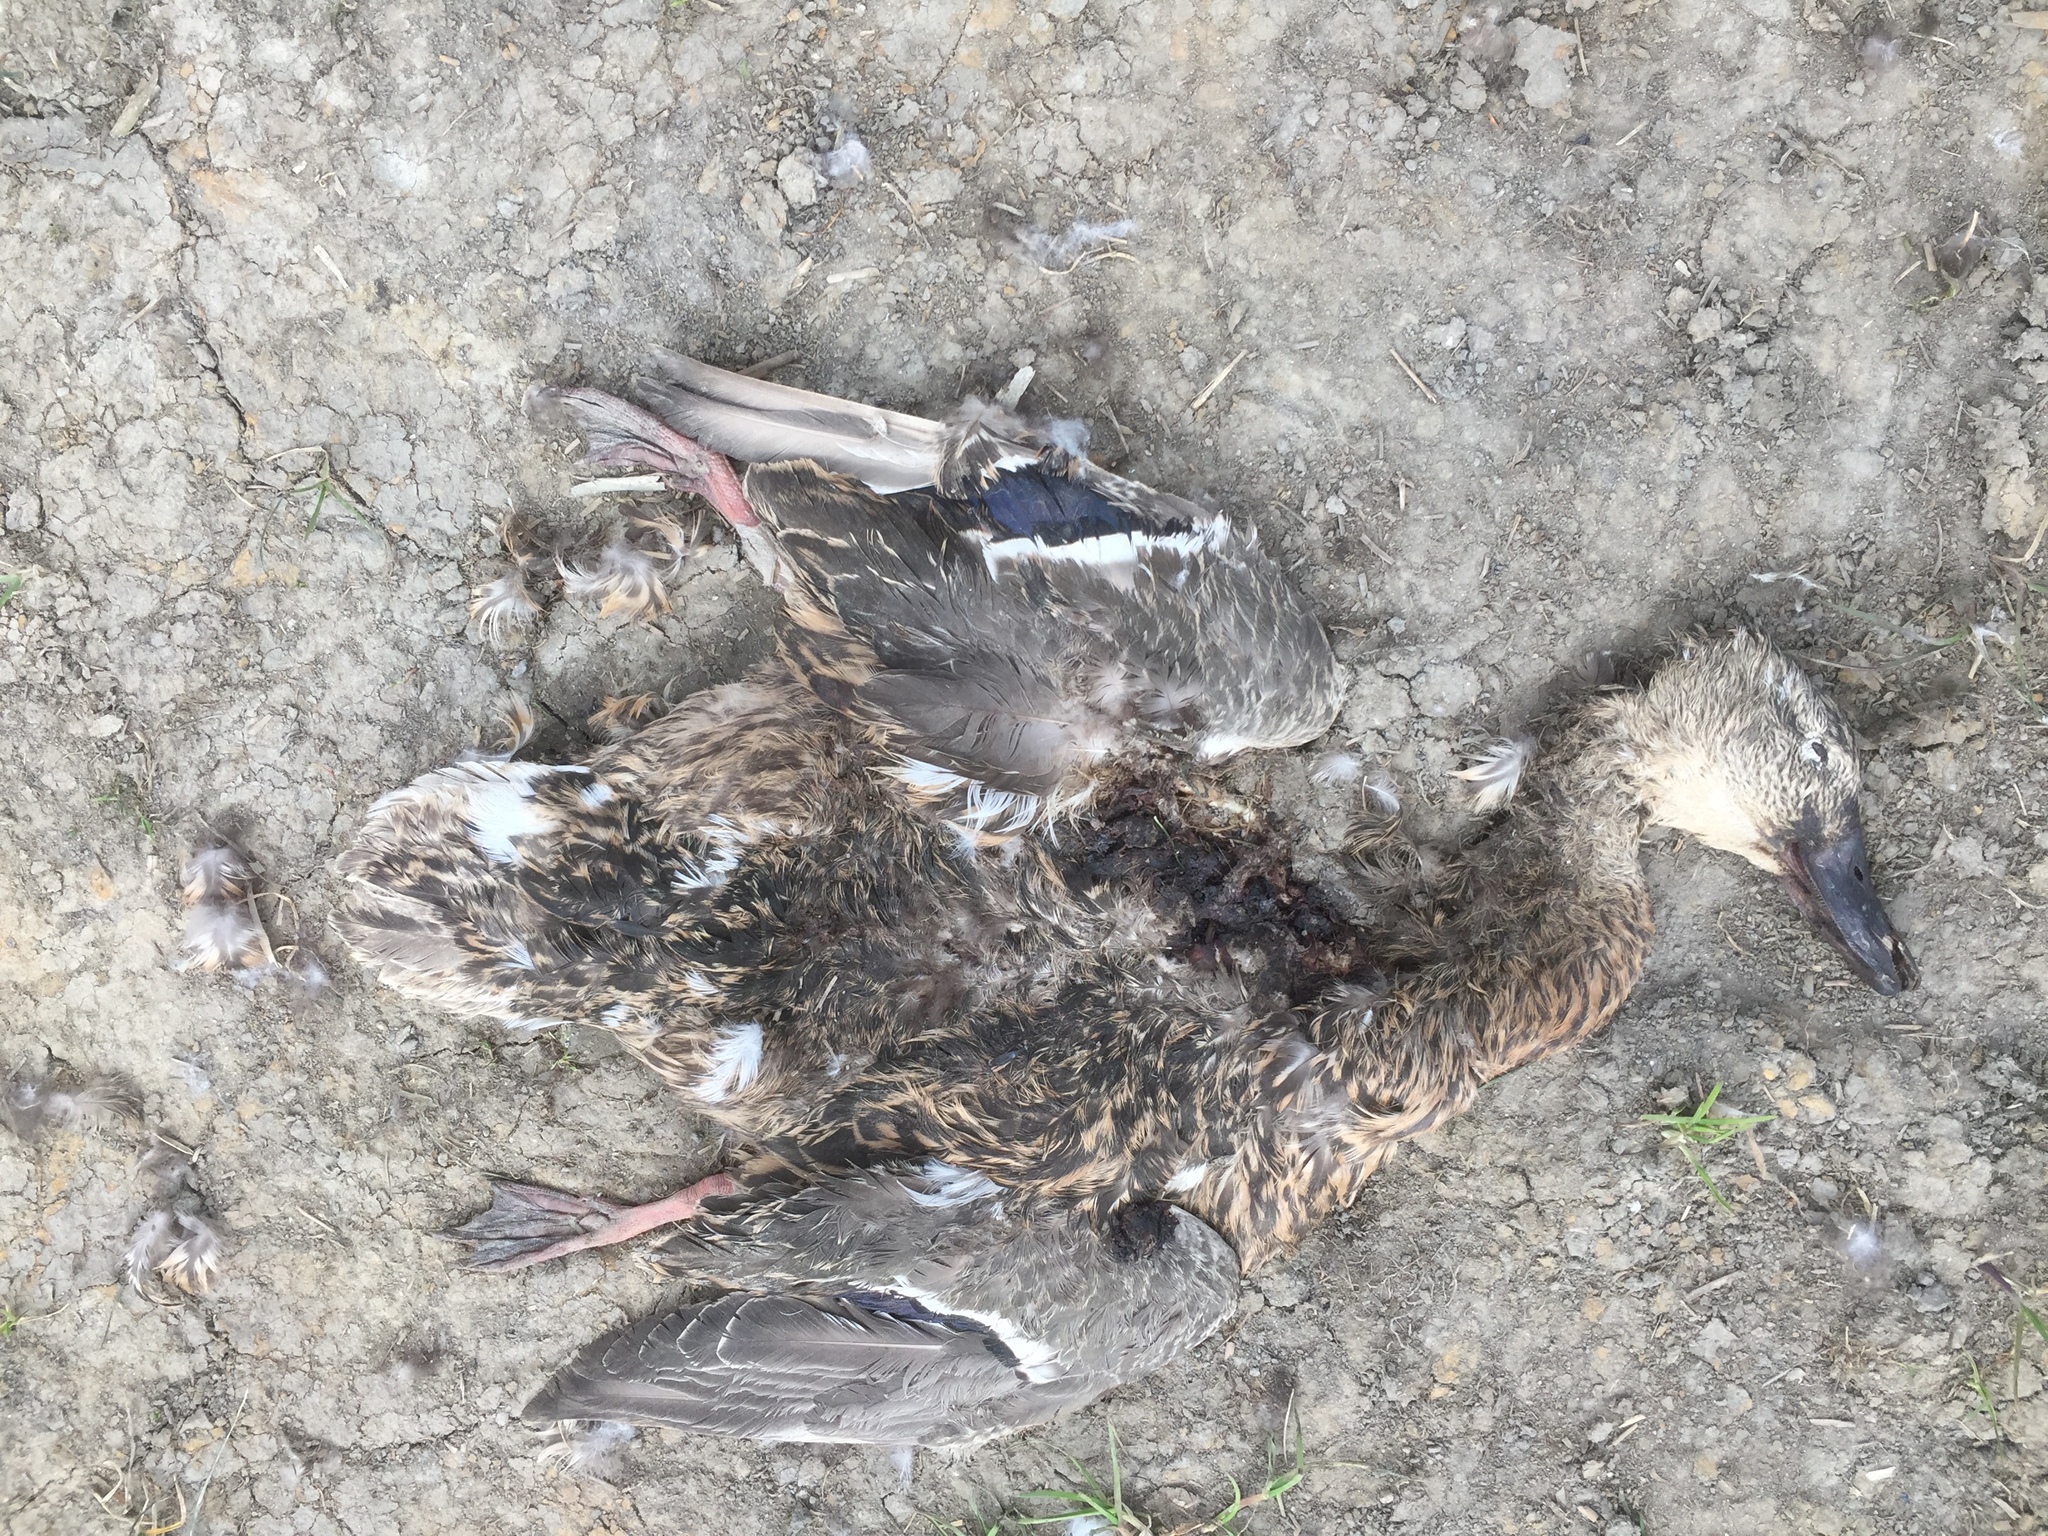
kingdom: Animalia
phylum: Chordata
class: Aves
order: Anseriformes
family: Anatidae
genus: Anas
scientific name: Anas platyrhynchos
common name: Mallard
